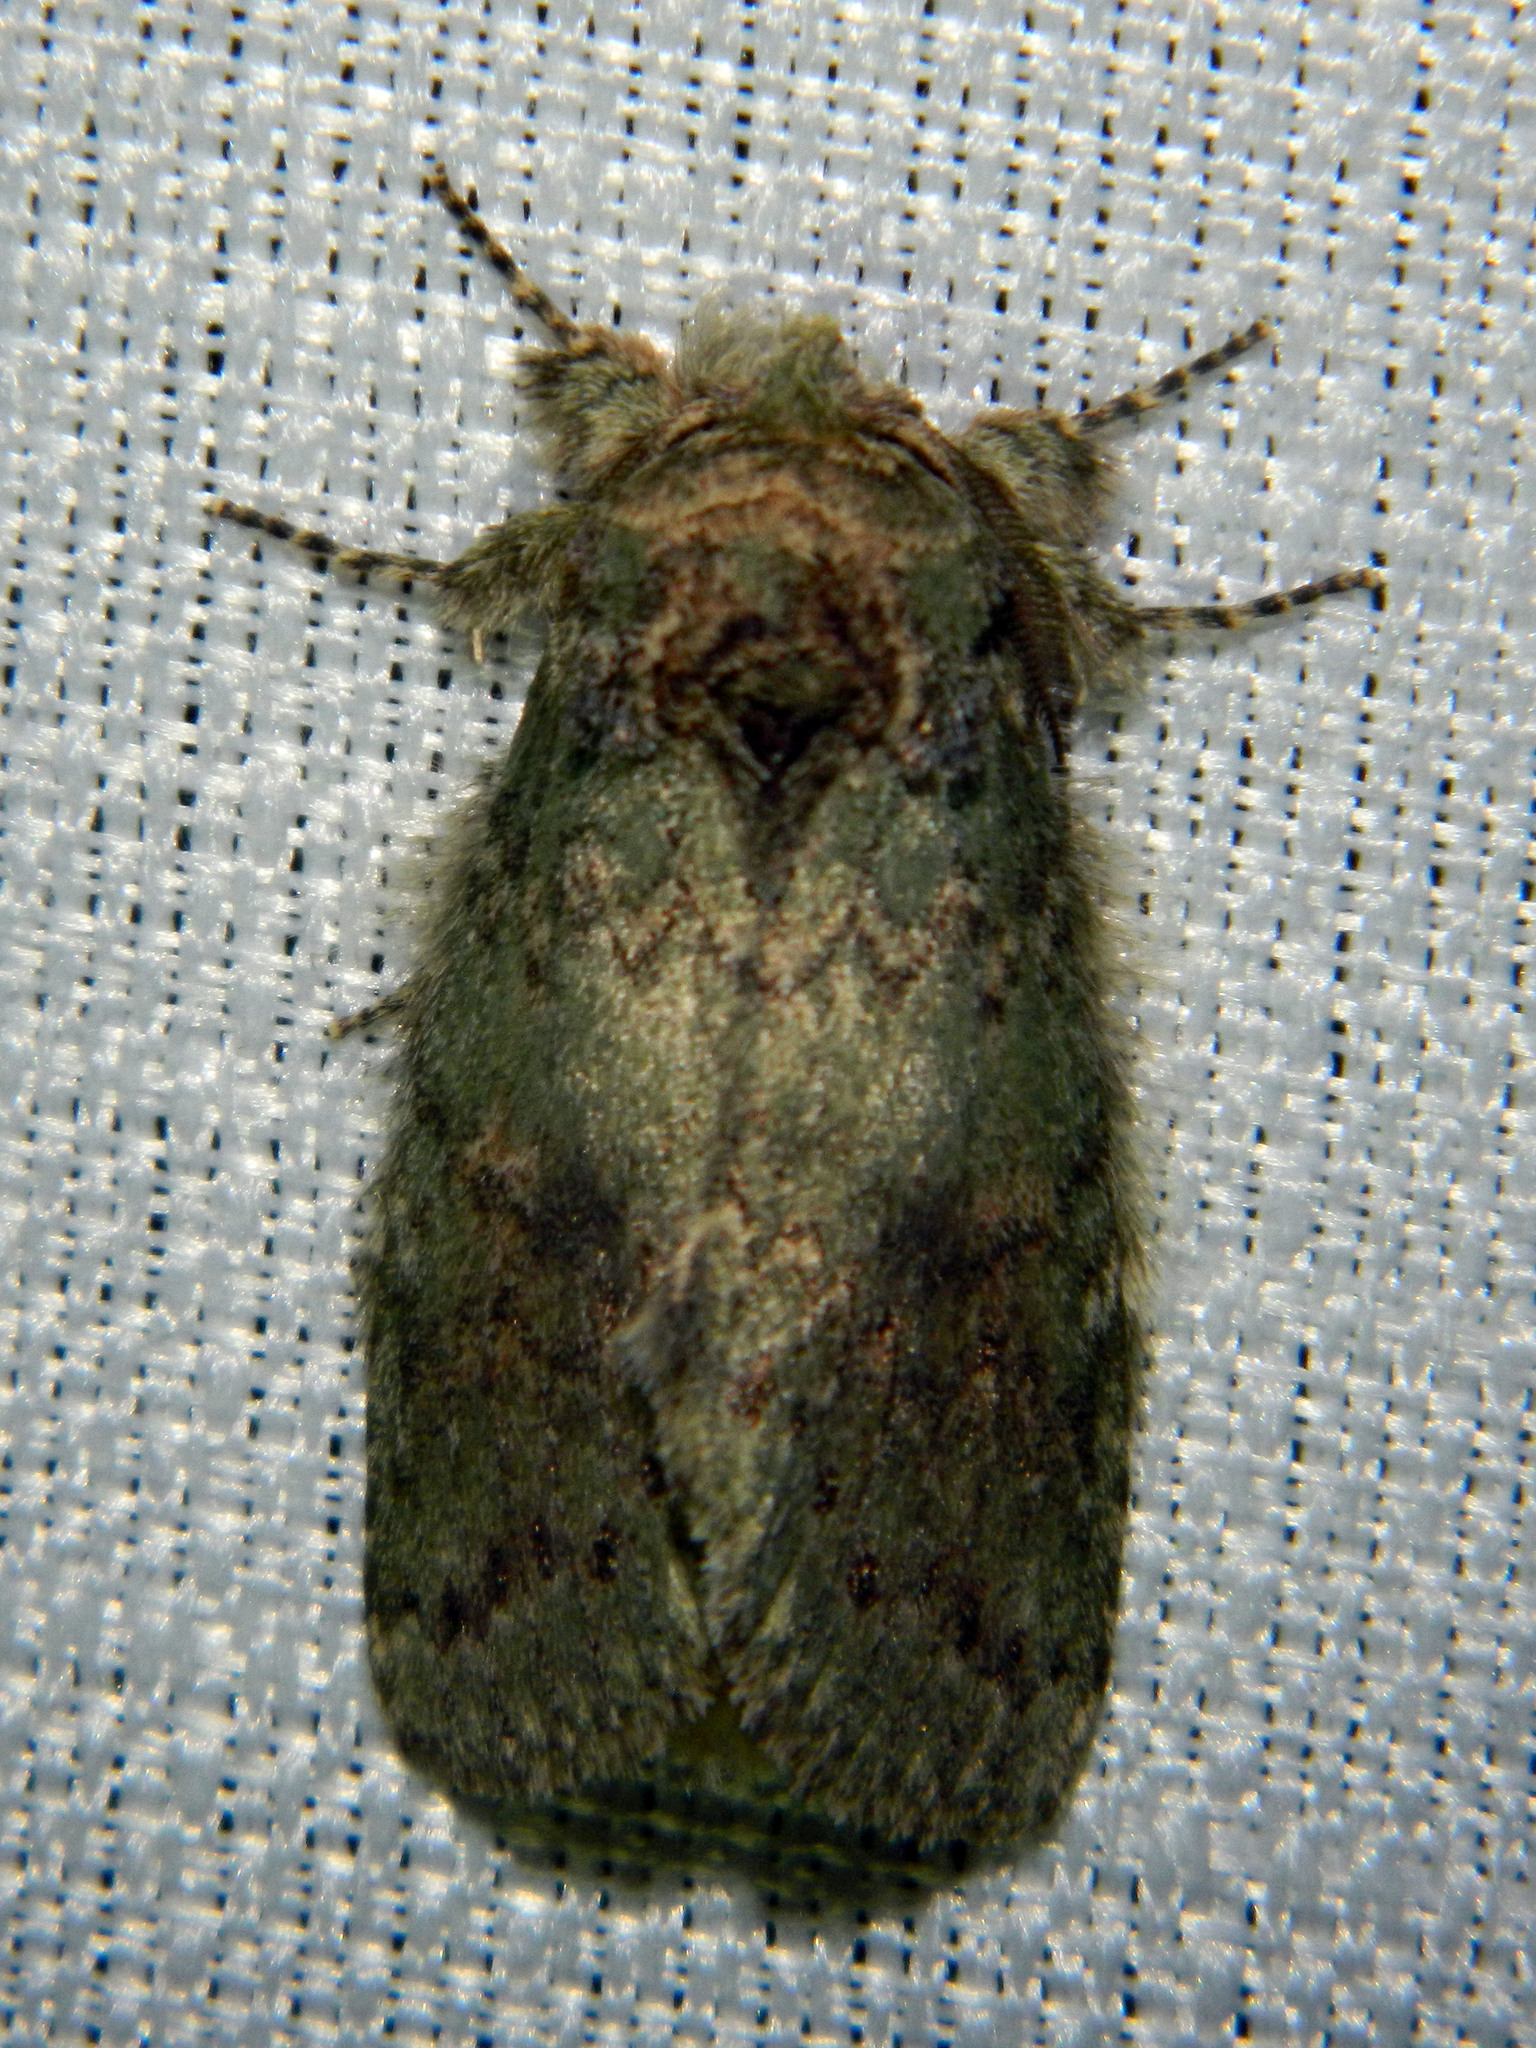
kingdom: Animalia
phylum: Arthropoda
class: Insecta
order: Lepidoptera
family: Notodontidae
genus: Disphragis
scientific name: Disphragis Cecrita biundata
